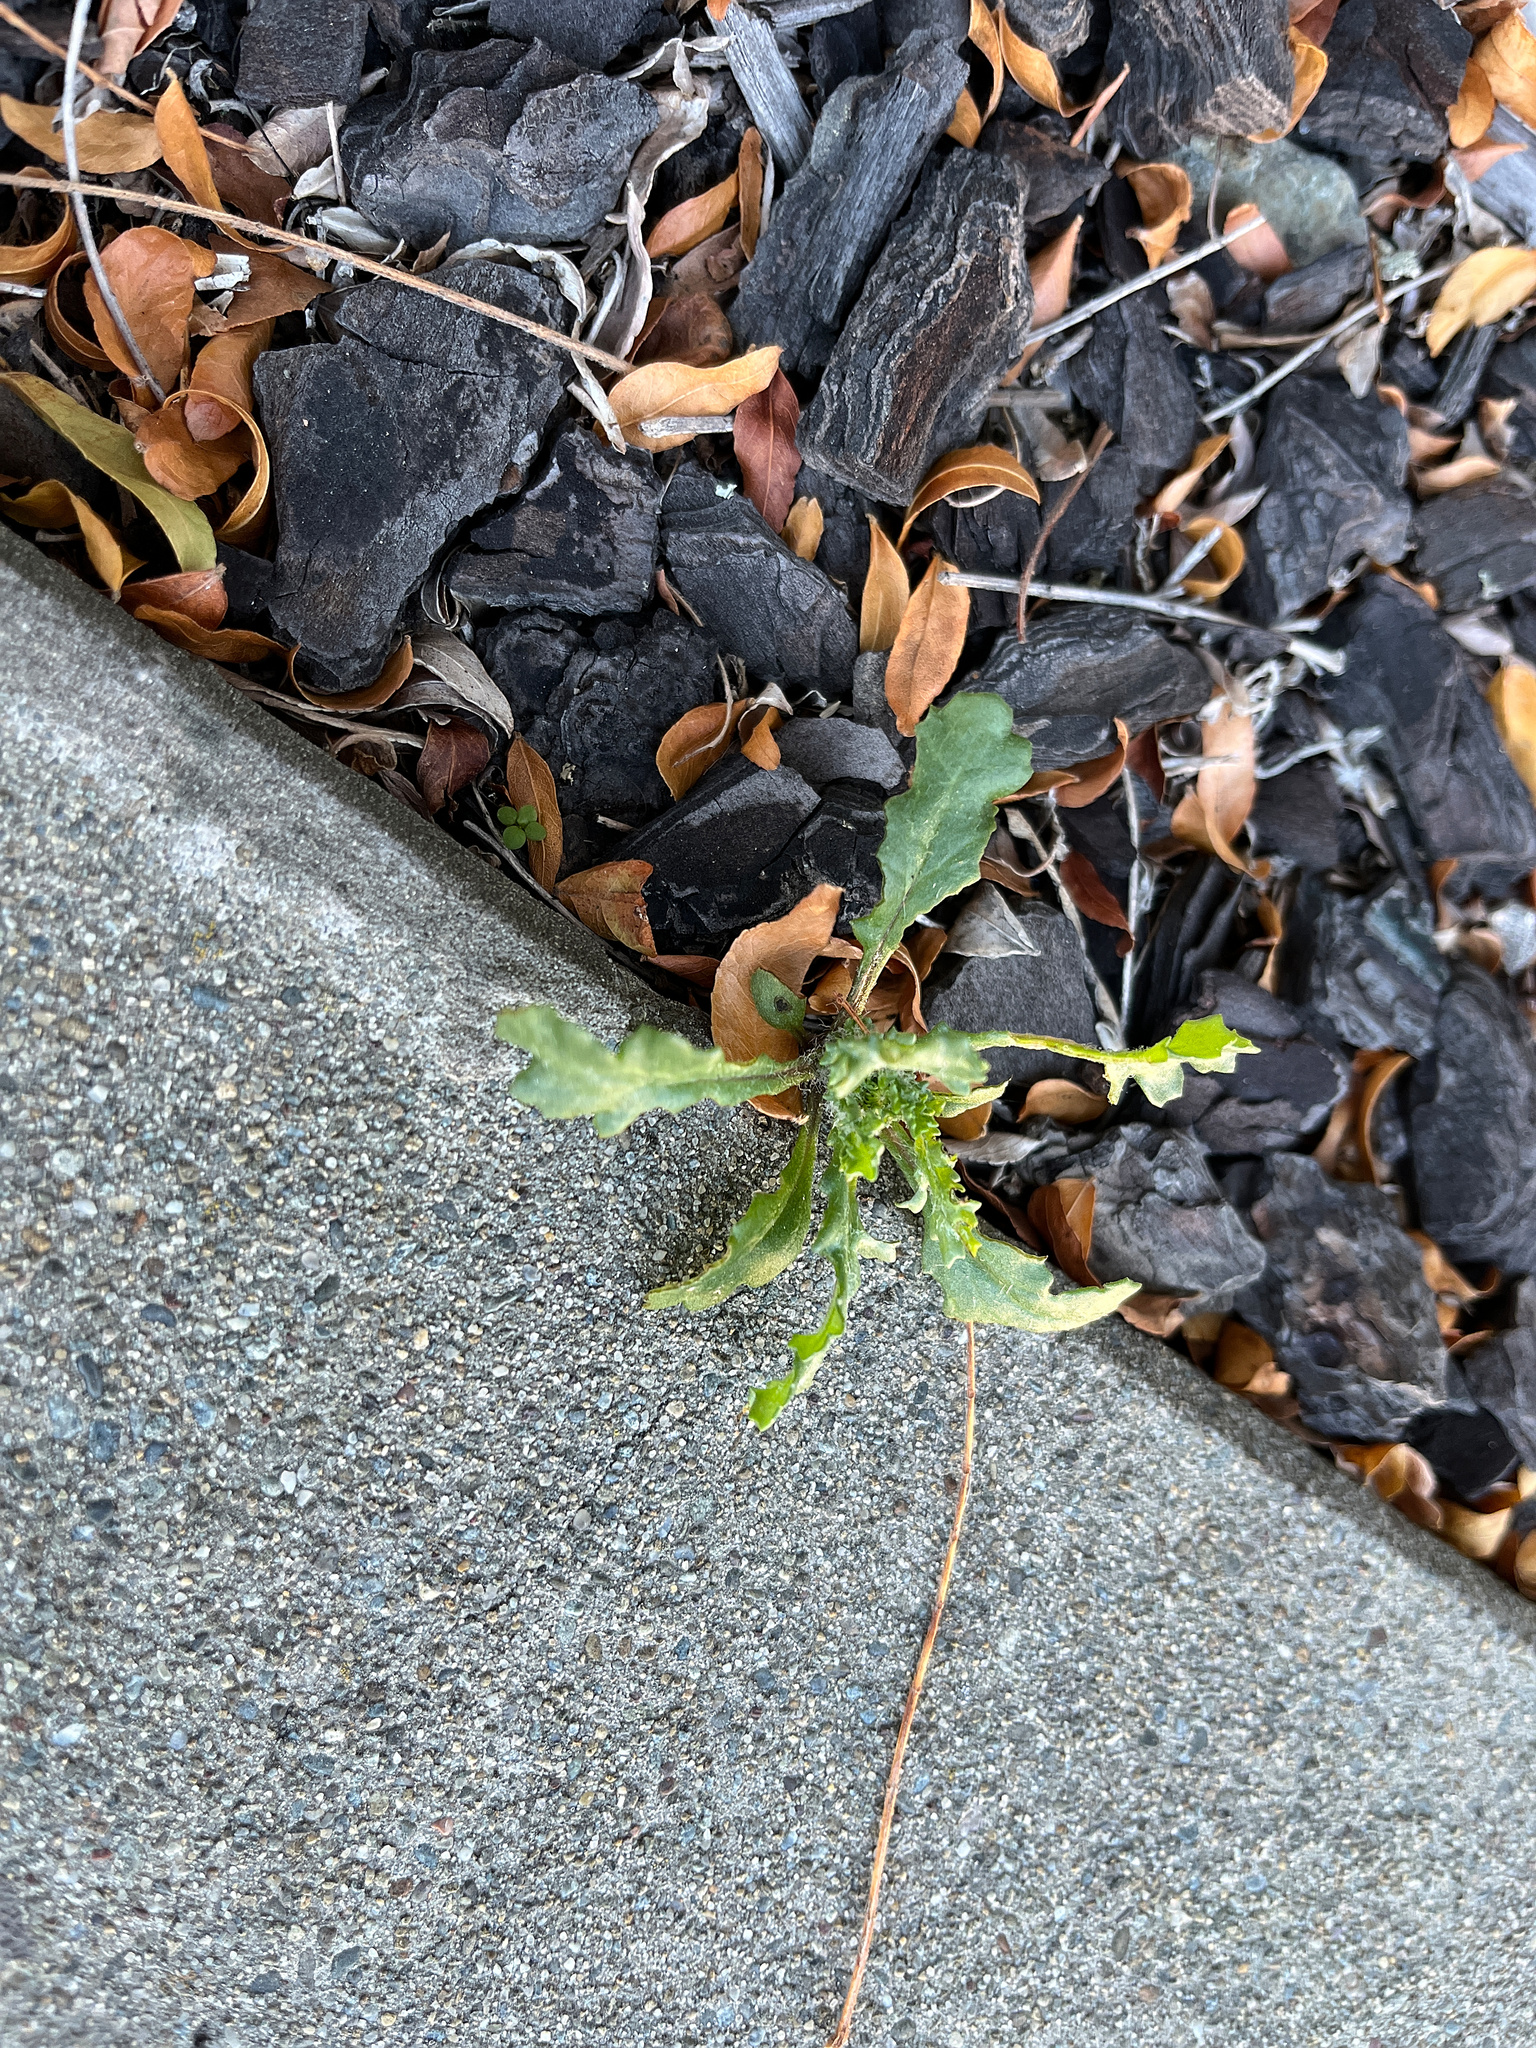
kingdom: Plantae
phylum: Tracheophyta
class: Magnoliopsida
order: Asterales
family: Asteraceae
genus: Senecio
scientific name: Senecio vulgaris
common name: Old-man-in-the-spring
